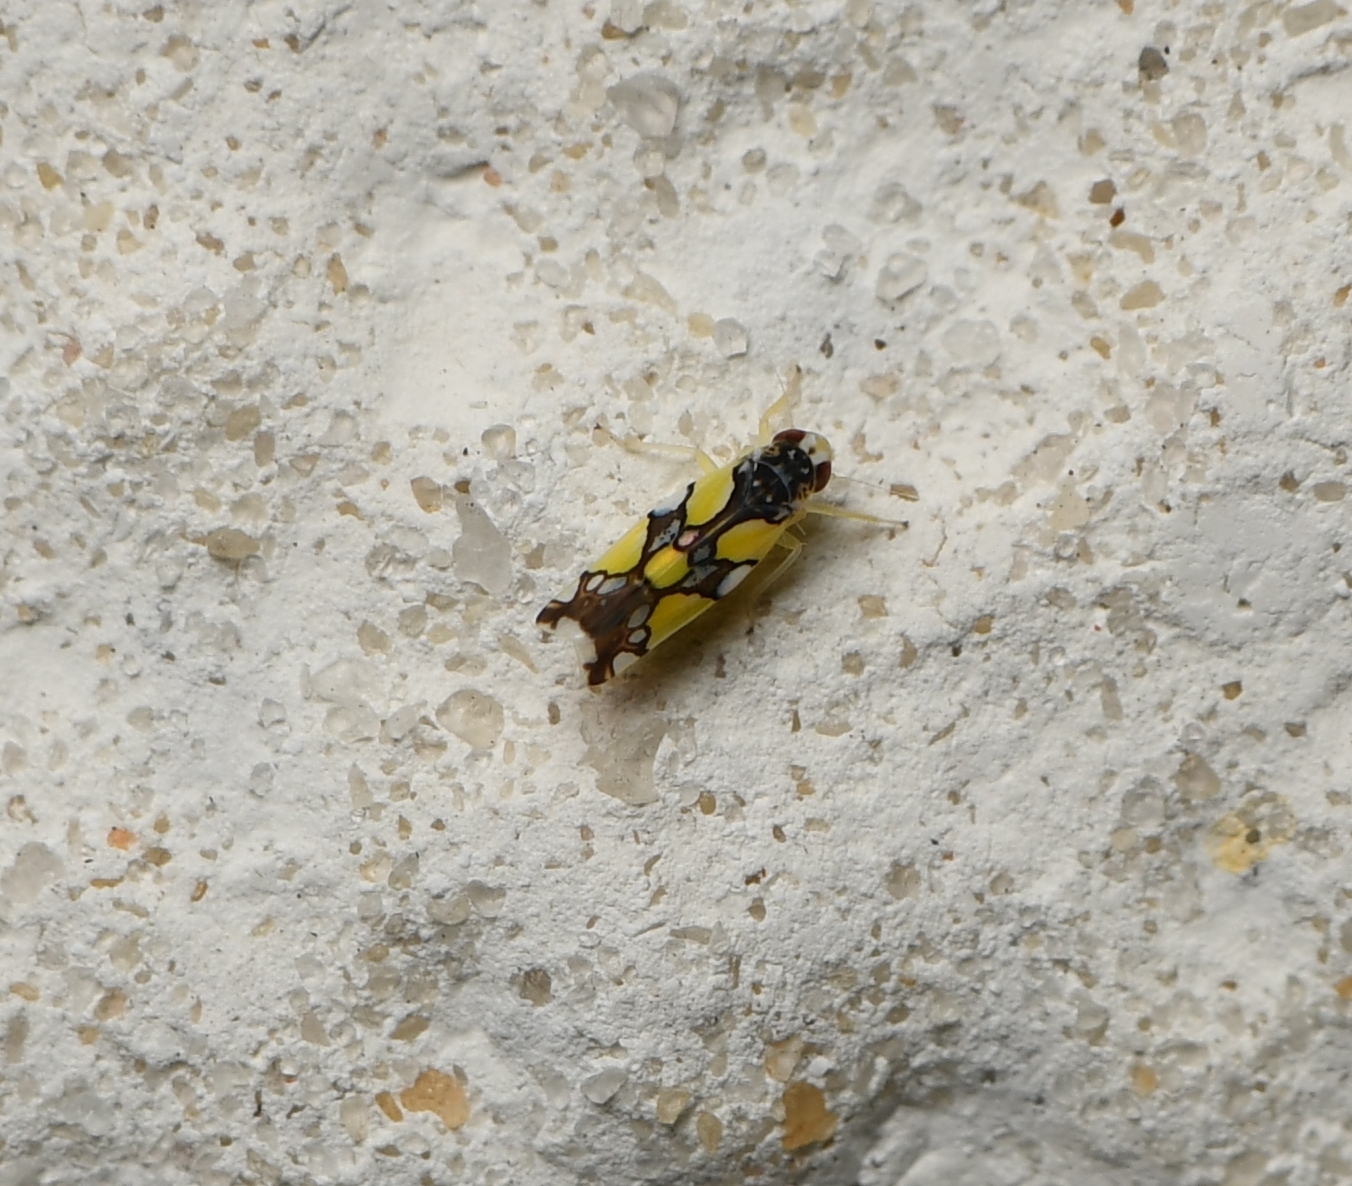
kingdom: Animalia
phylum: Arthropoda
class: Insecta
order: Hemiptera
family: Cicadellidae
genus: Protalebrella
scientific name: Protalebrella brasiliensis
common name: Brasilian leafhopper
